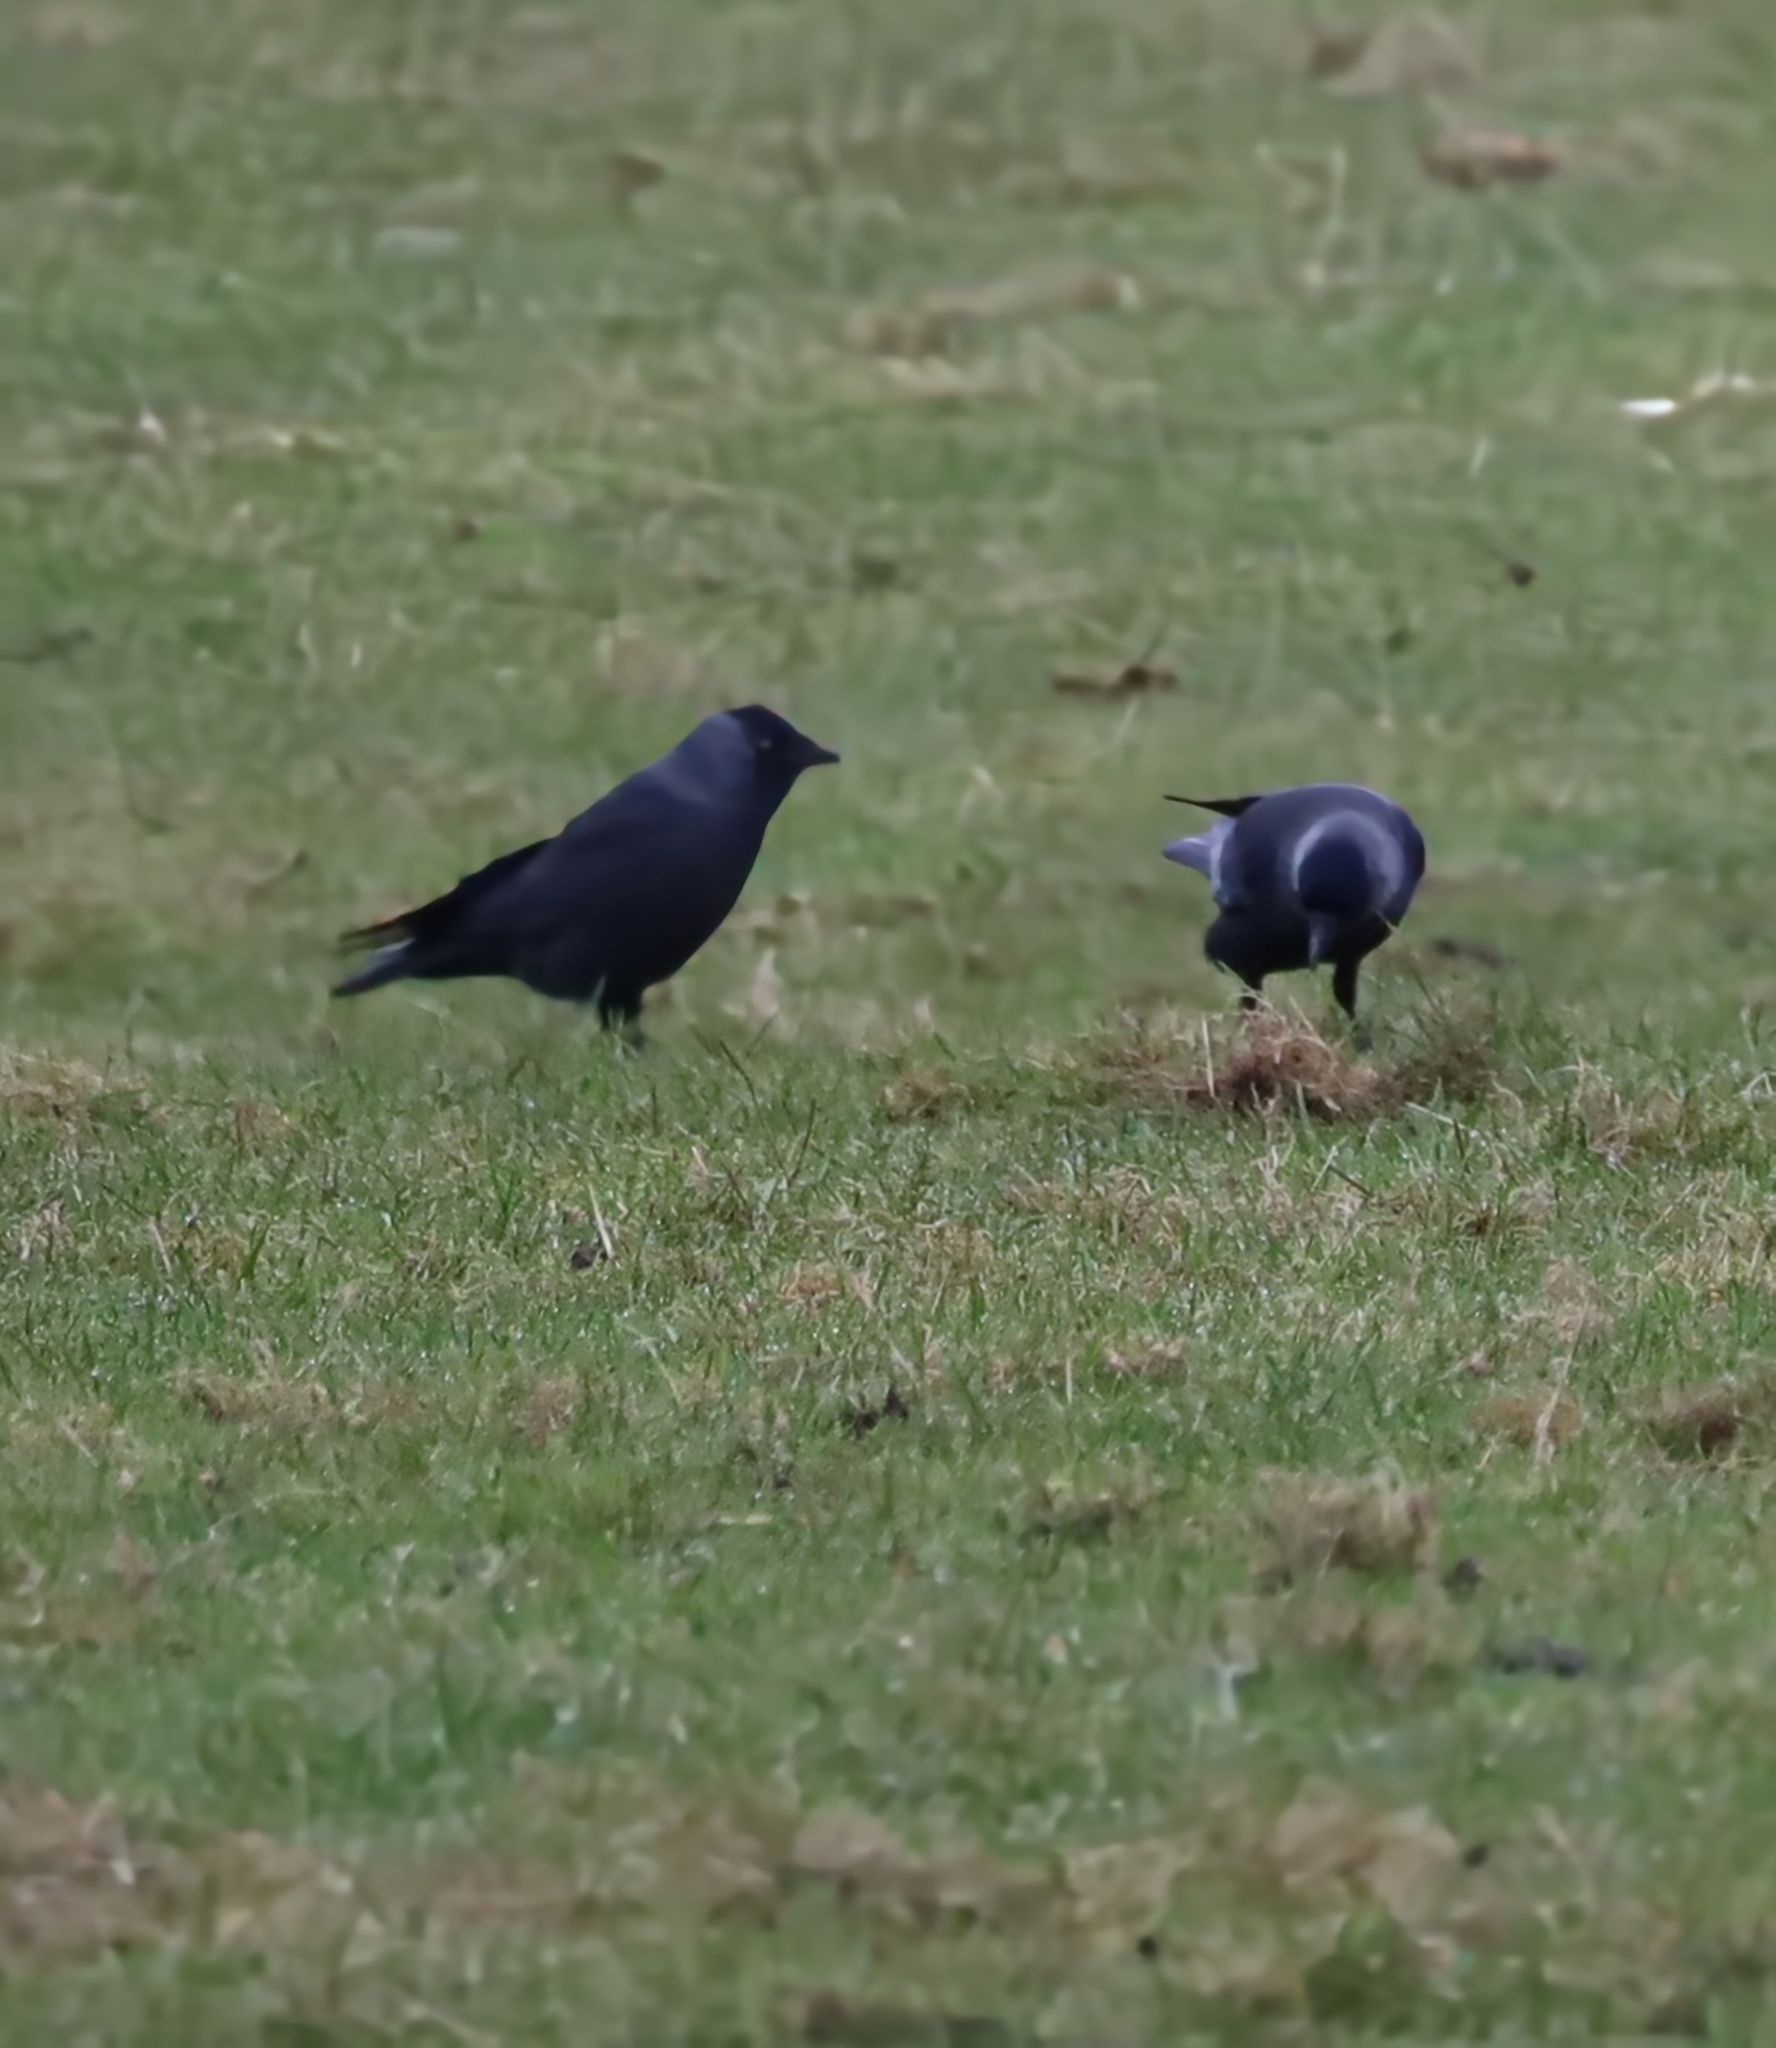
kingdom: Animalia
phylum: Chordata
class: Aves
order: Passeriformes
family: Corvidae
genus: Coloeus
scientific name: Coloeus monedula
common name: Western jackdaw
